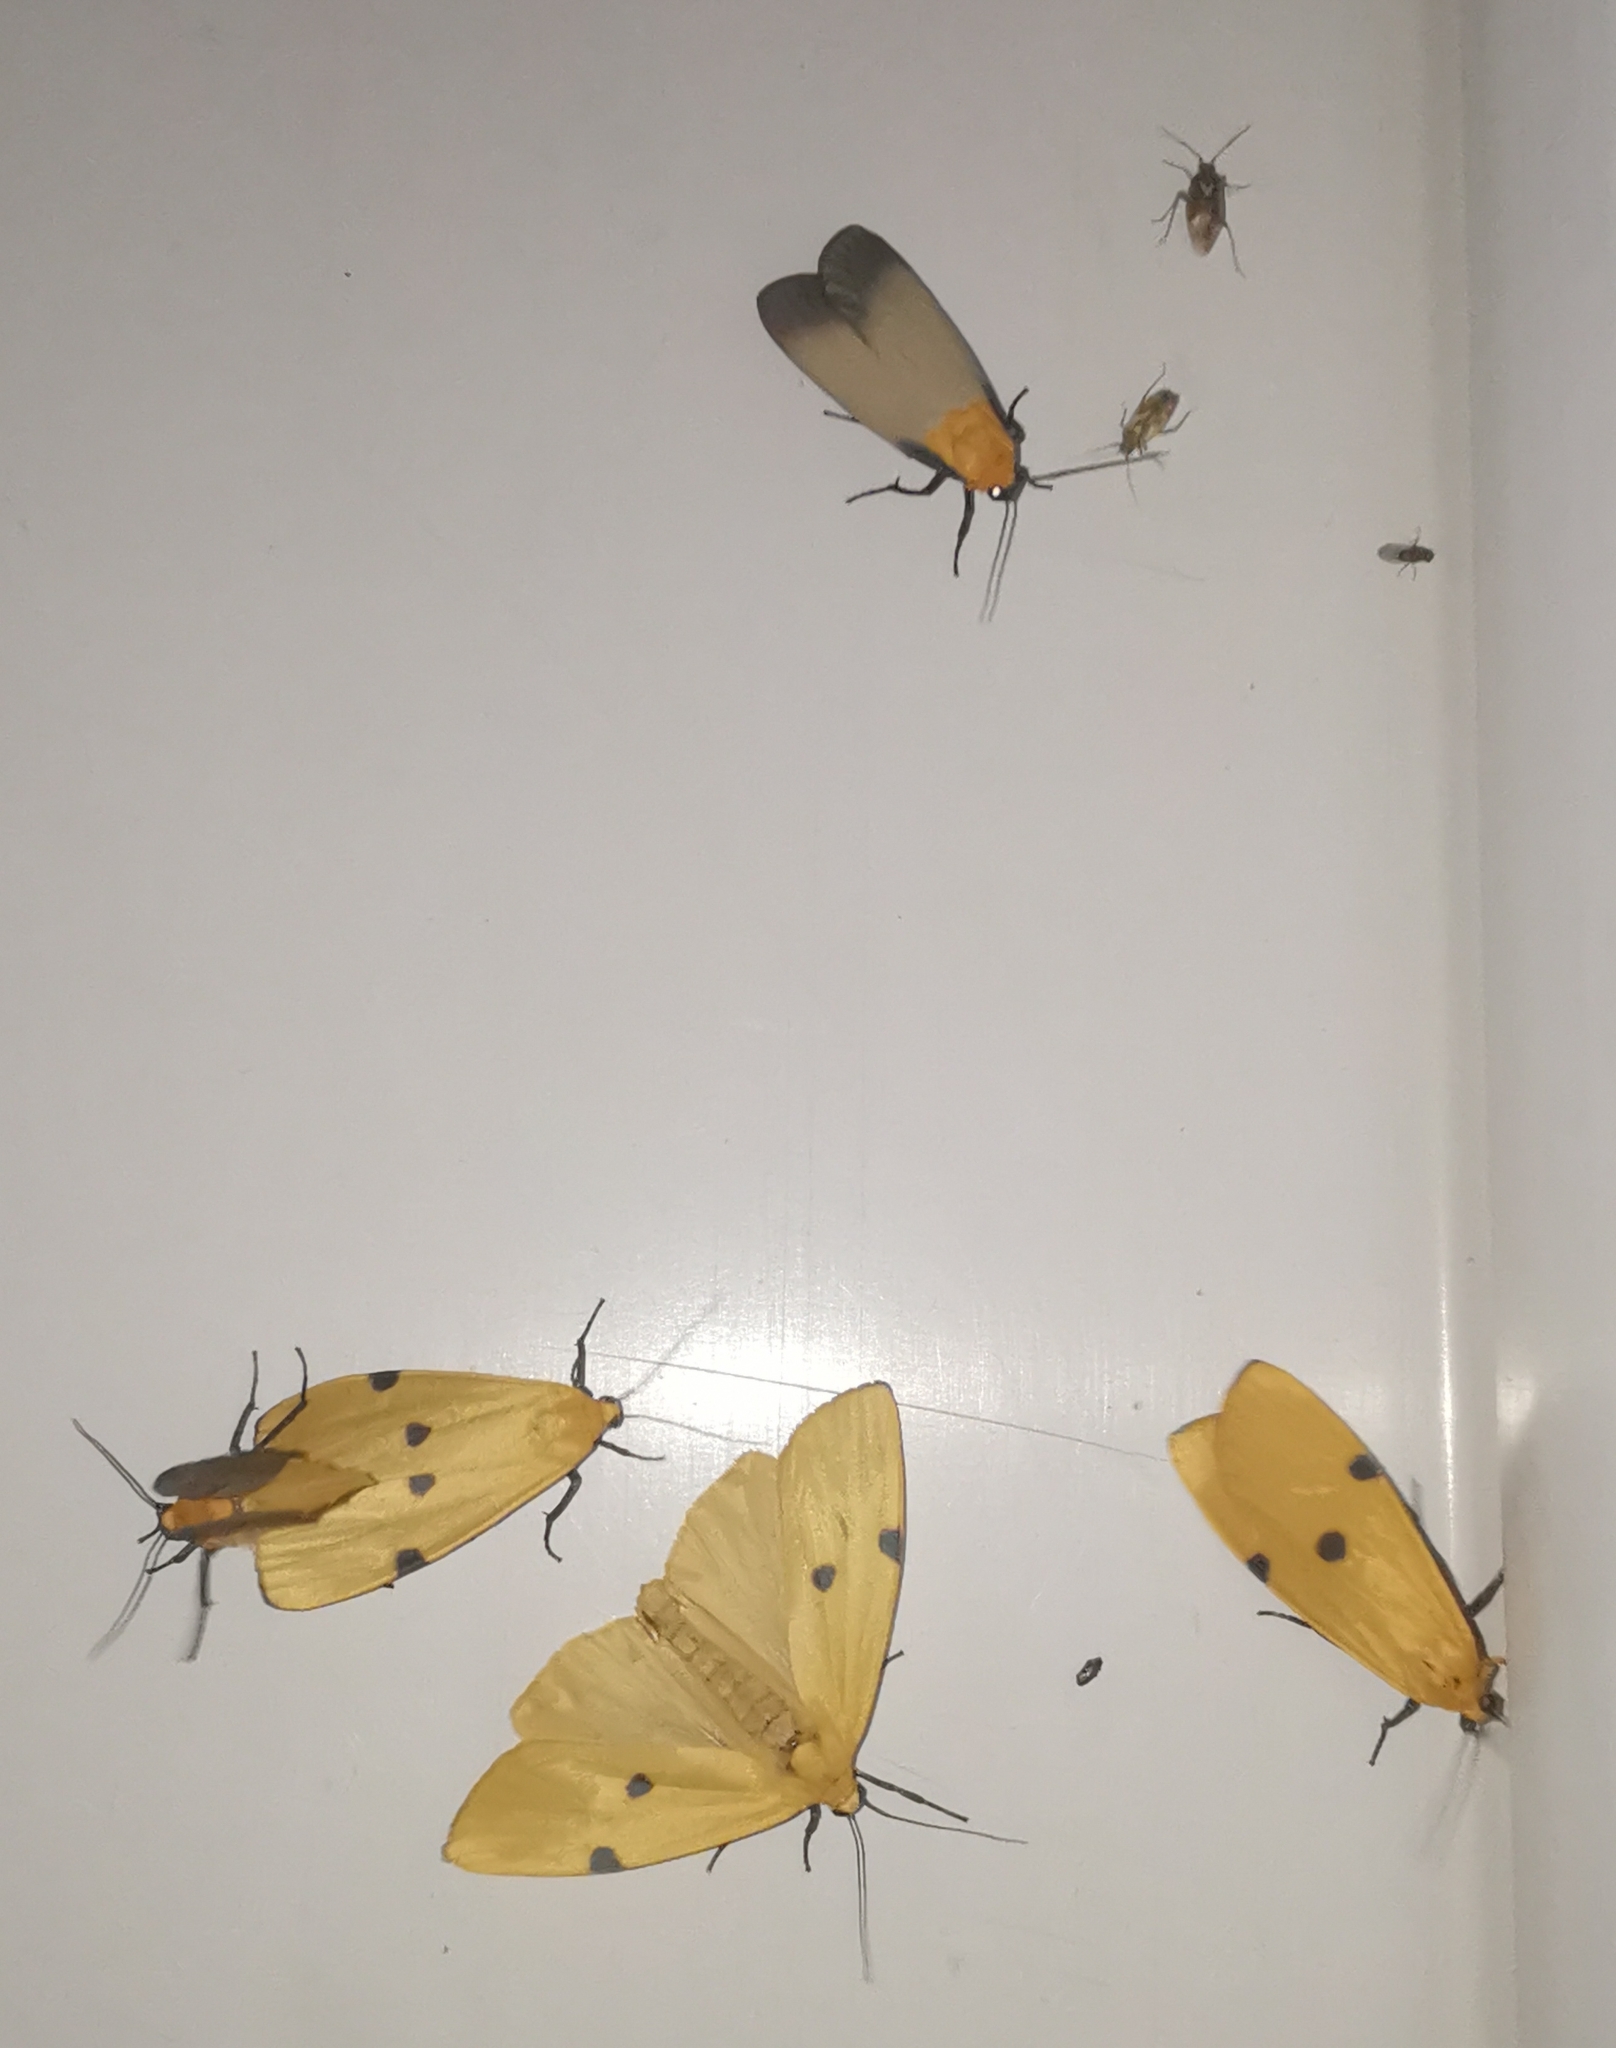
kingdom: Animalia
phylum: Arthropoda
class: Insecta
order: Lepidoptera
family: Erebidae
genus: Lithosia
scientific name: Lithosia quadra
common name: Four-spotted footman
